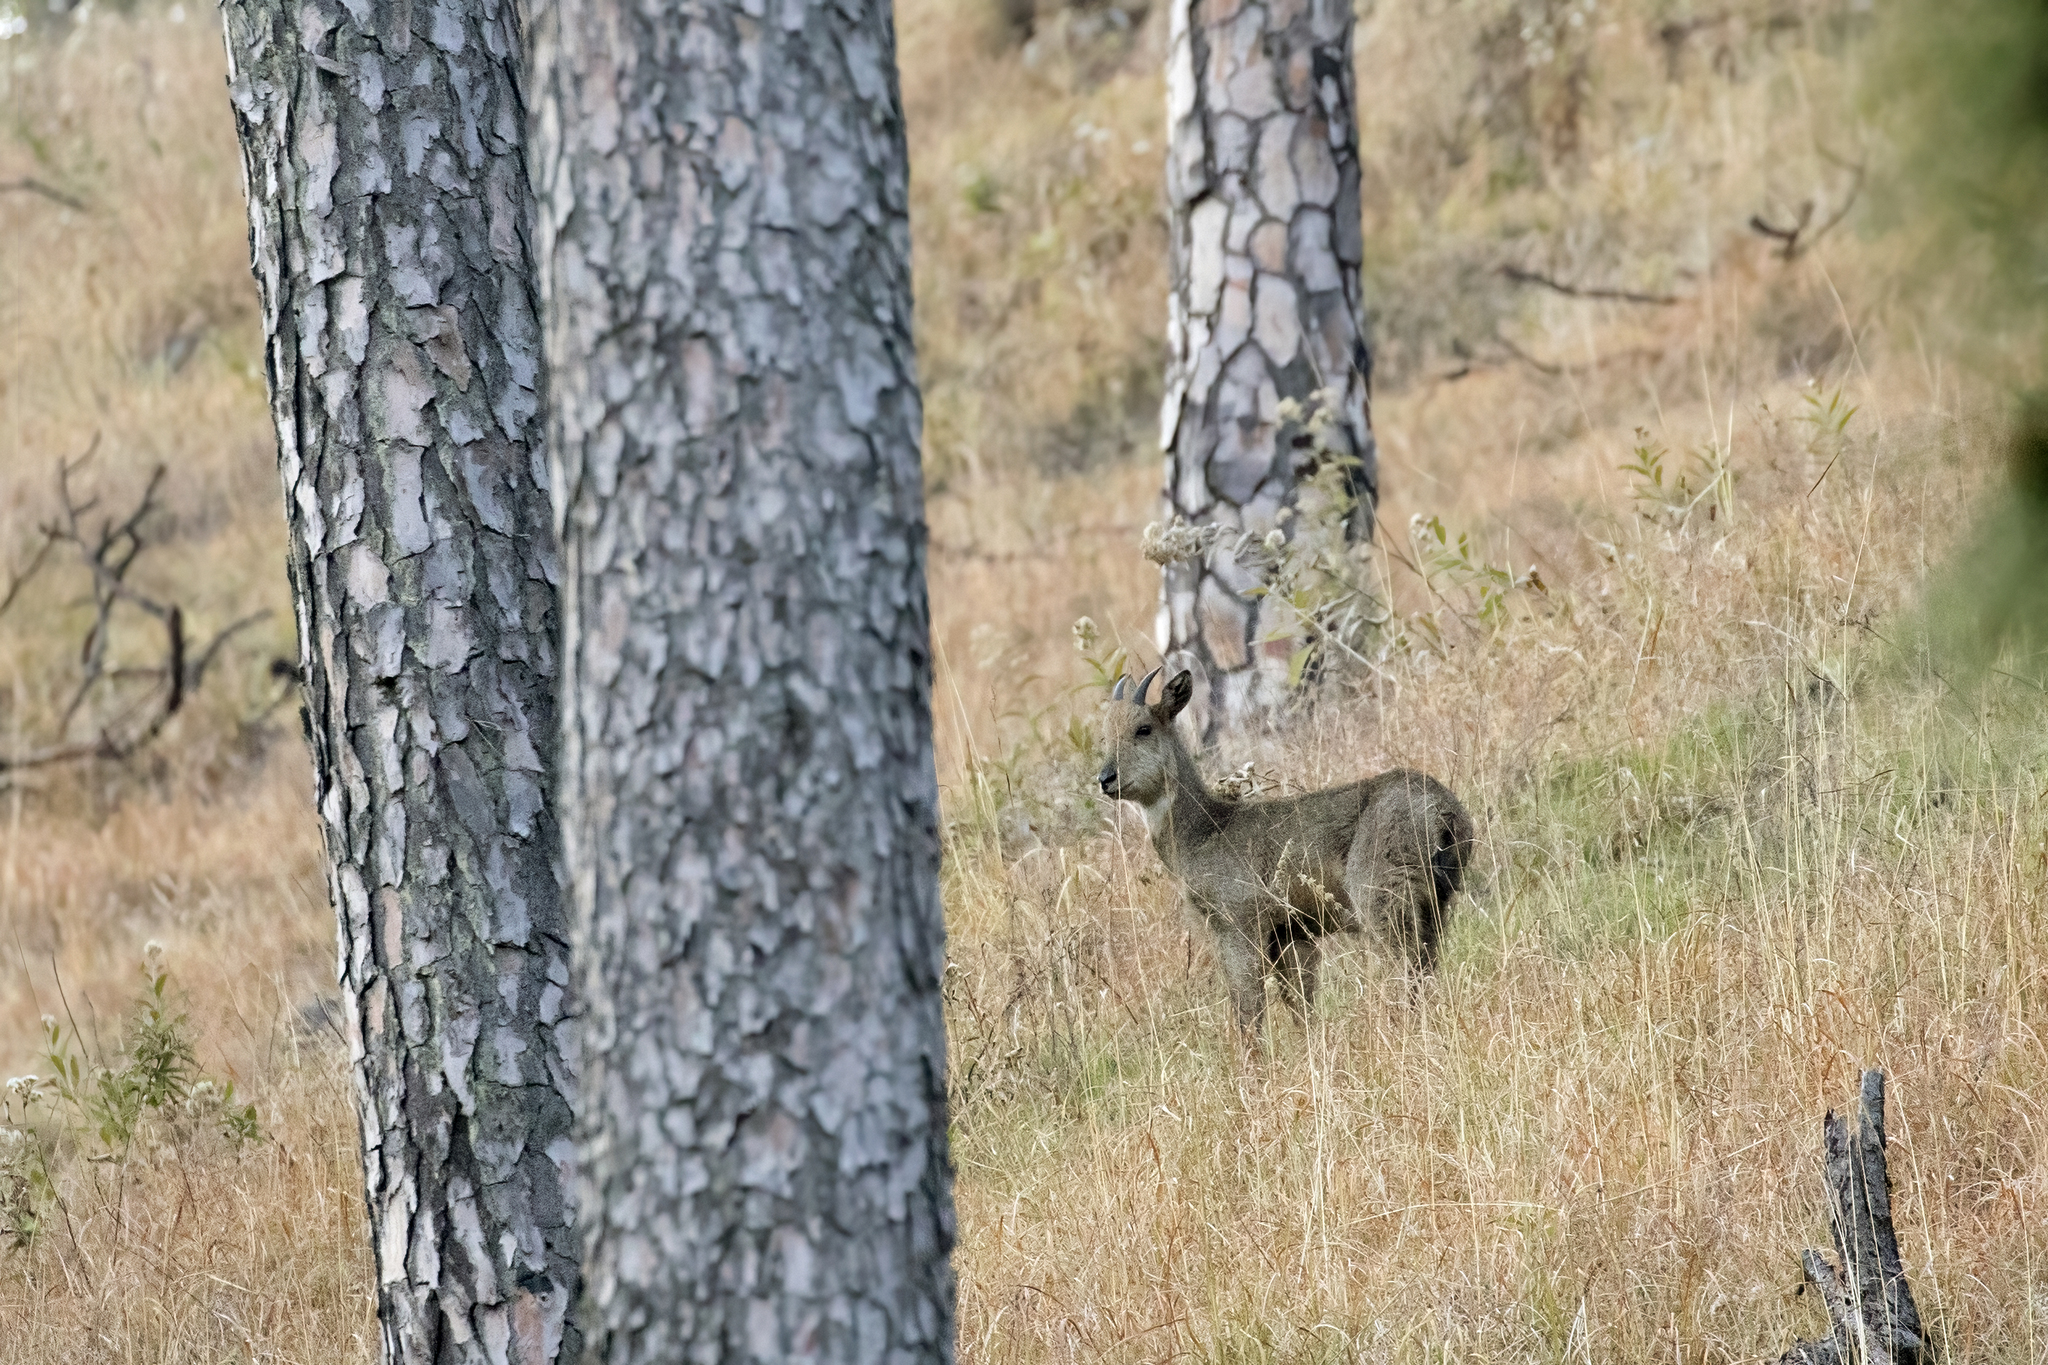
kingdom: Animalia
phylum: Chordata
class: Mammalia
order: Artiodactyla
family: Bovidae
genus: Naemorhedus
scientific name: Naemorhedus goral
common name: Goral
